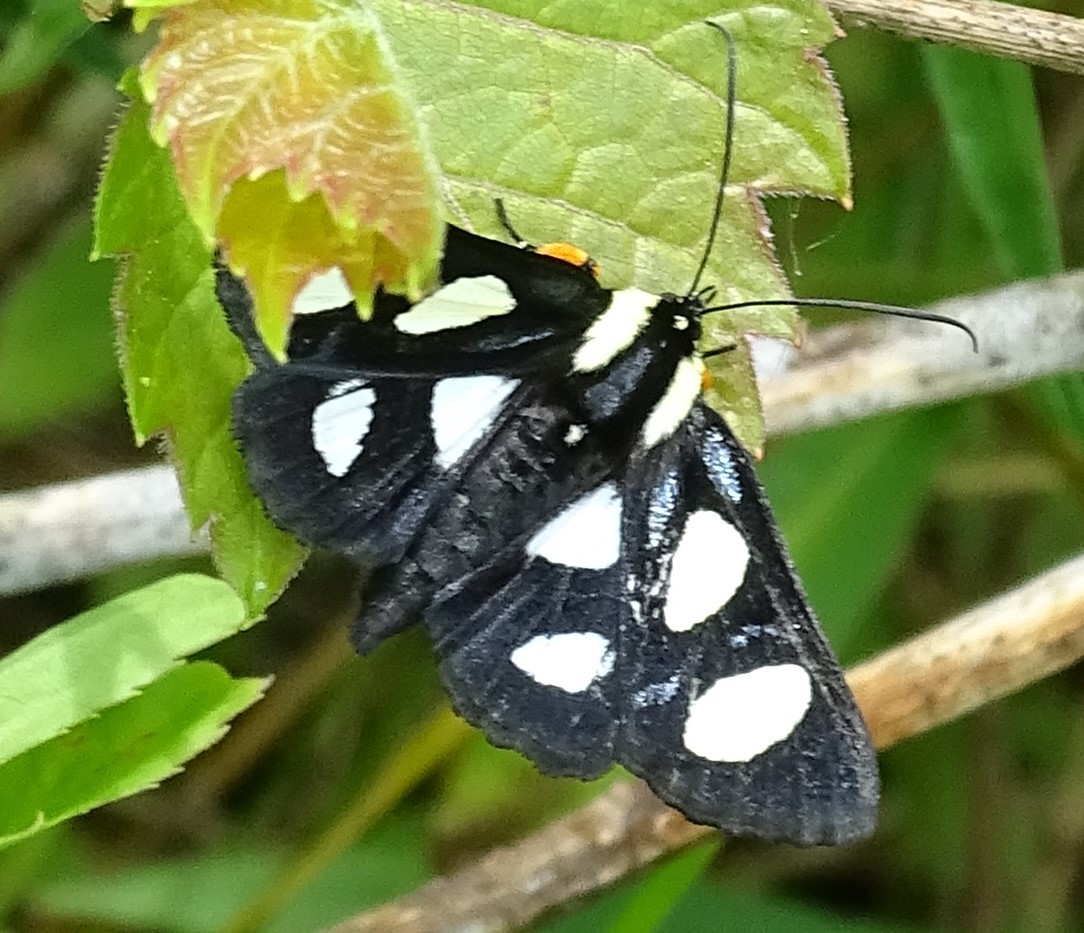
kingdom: Animalia
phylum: Arthropoda
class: Insecta
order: Lepidoptera
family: Noctuidae
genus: Alypia
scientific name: Alypia octomaculata
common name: Eight-spotted forester
